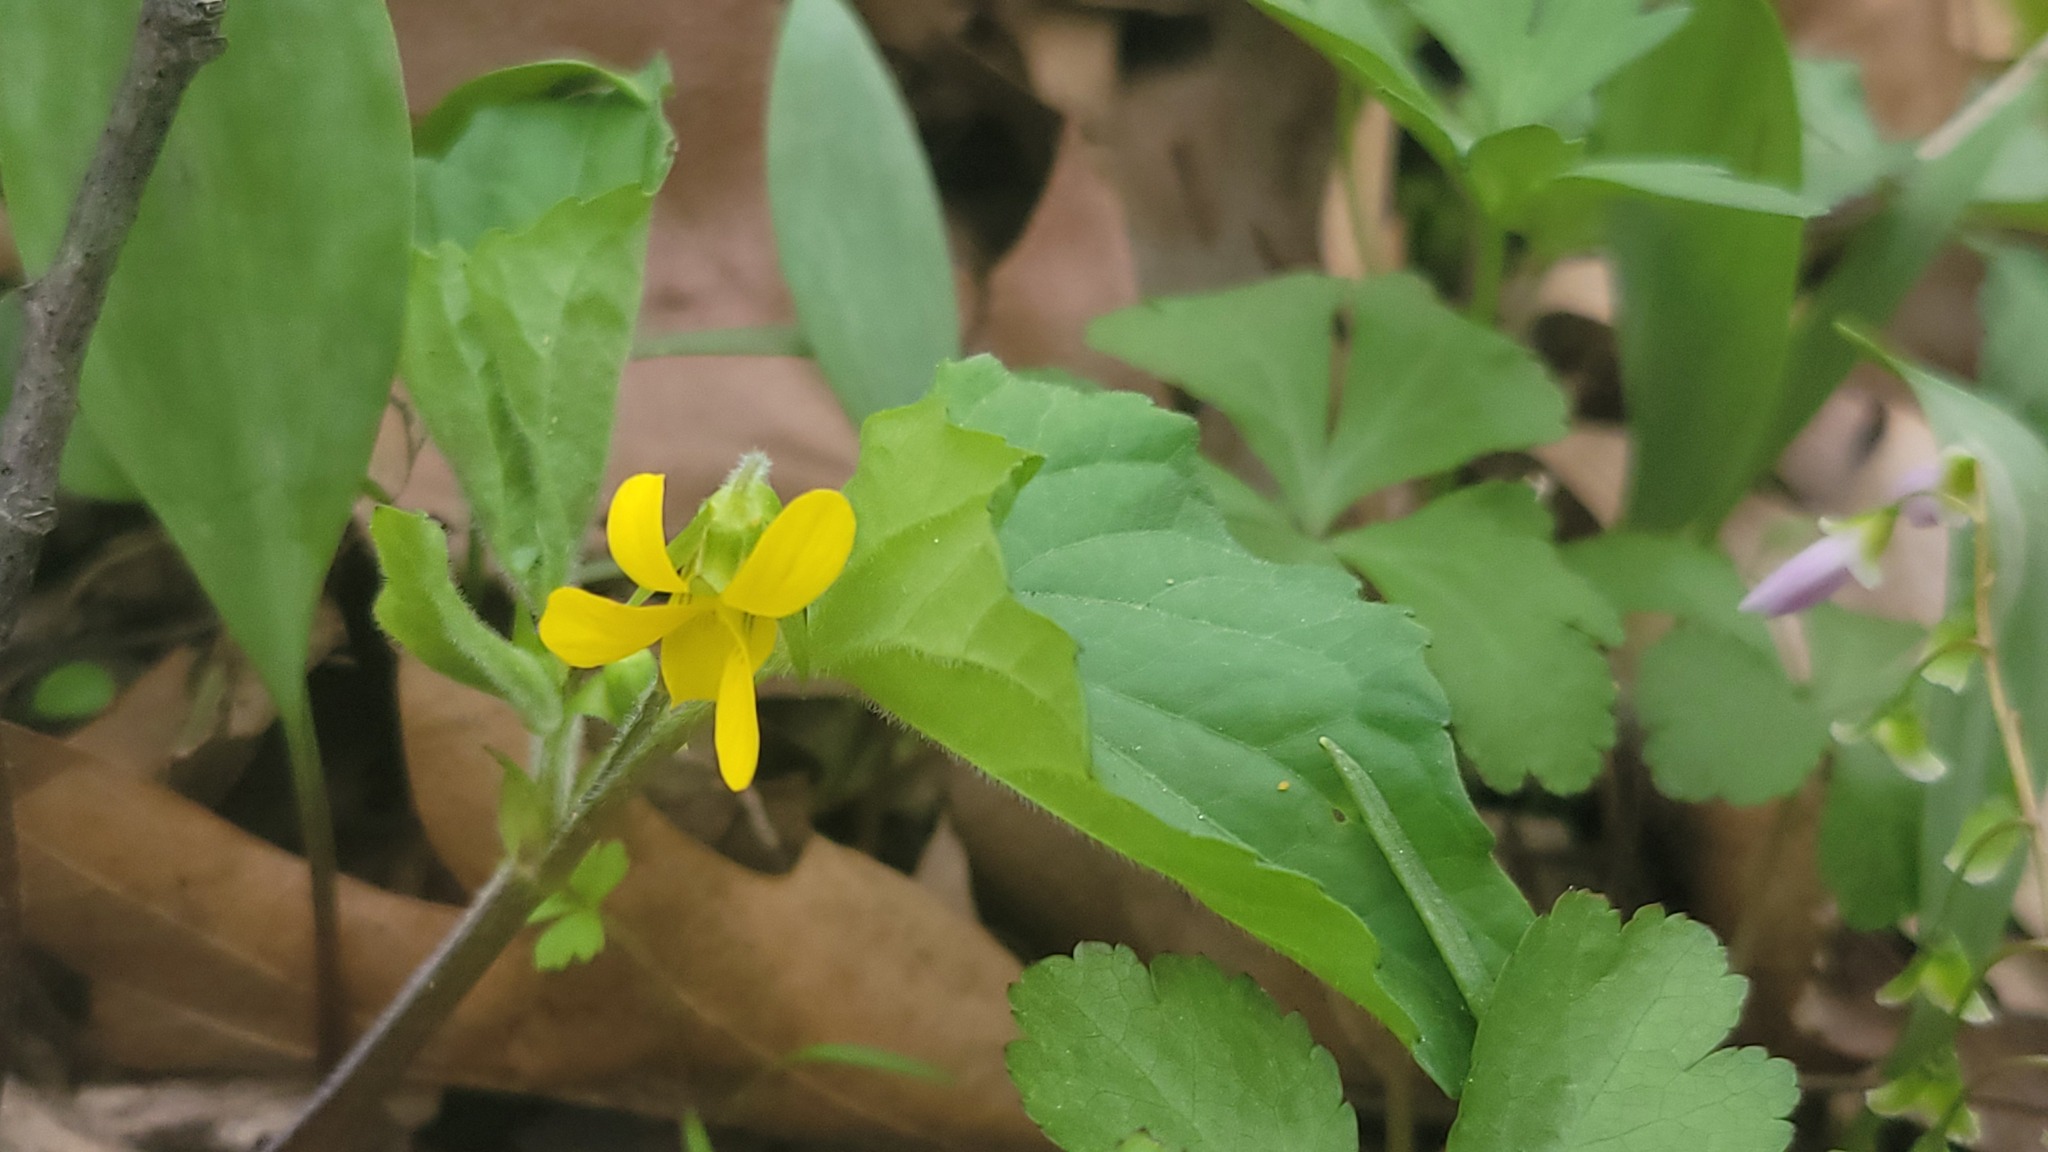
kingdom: Plantae
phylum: Tracheophyta
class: Magnoliopsida
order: Malpighiales
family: Violaceae
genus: Viola
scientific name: Viola eriocarpa
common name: Smooth yellow violet
